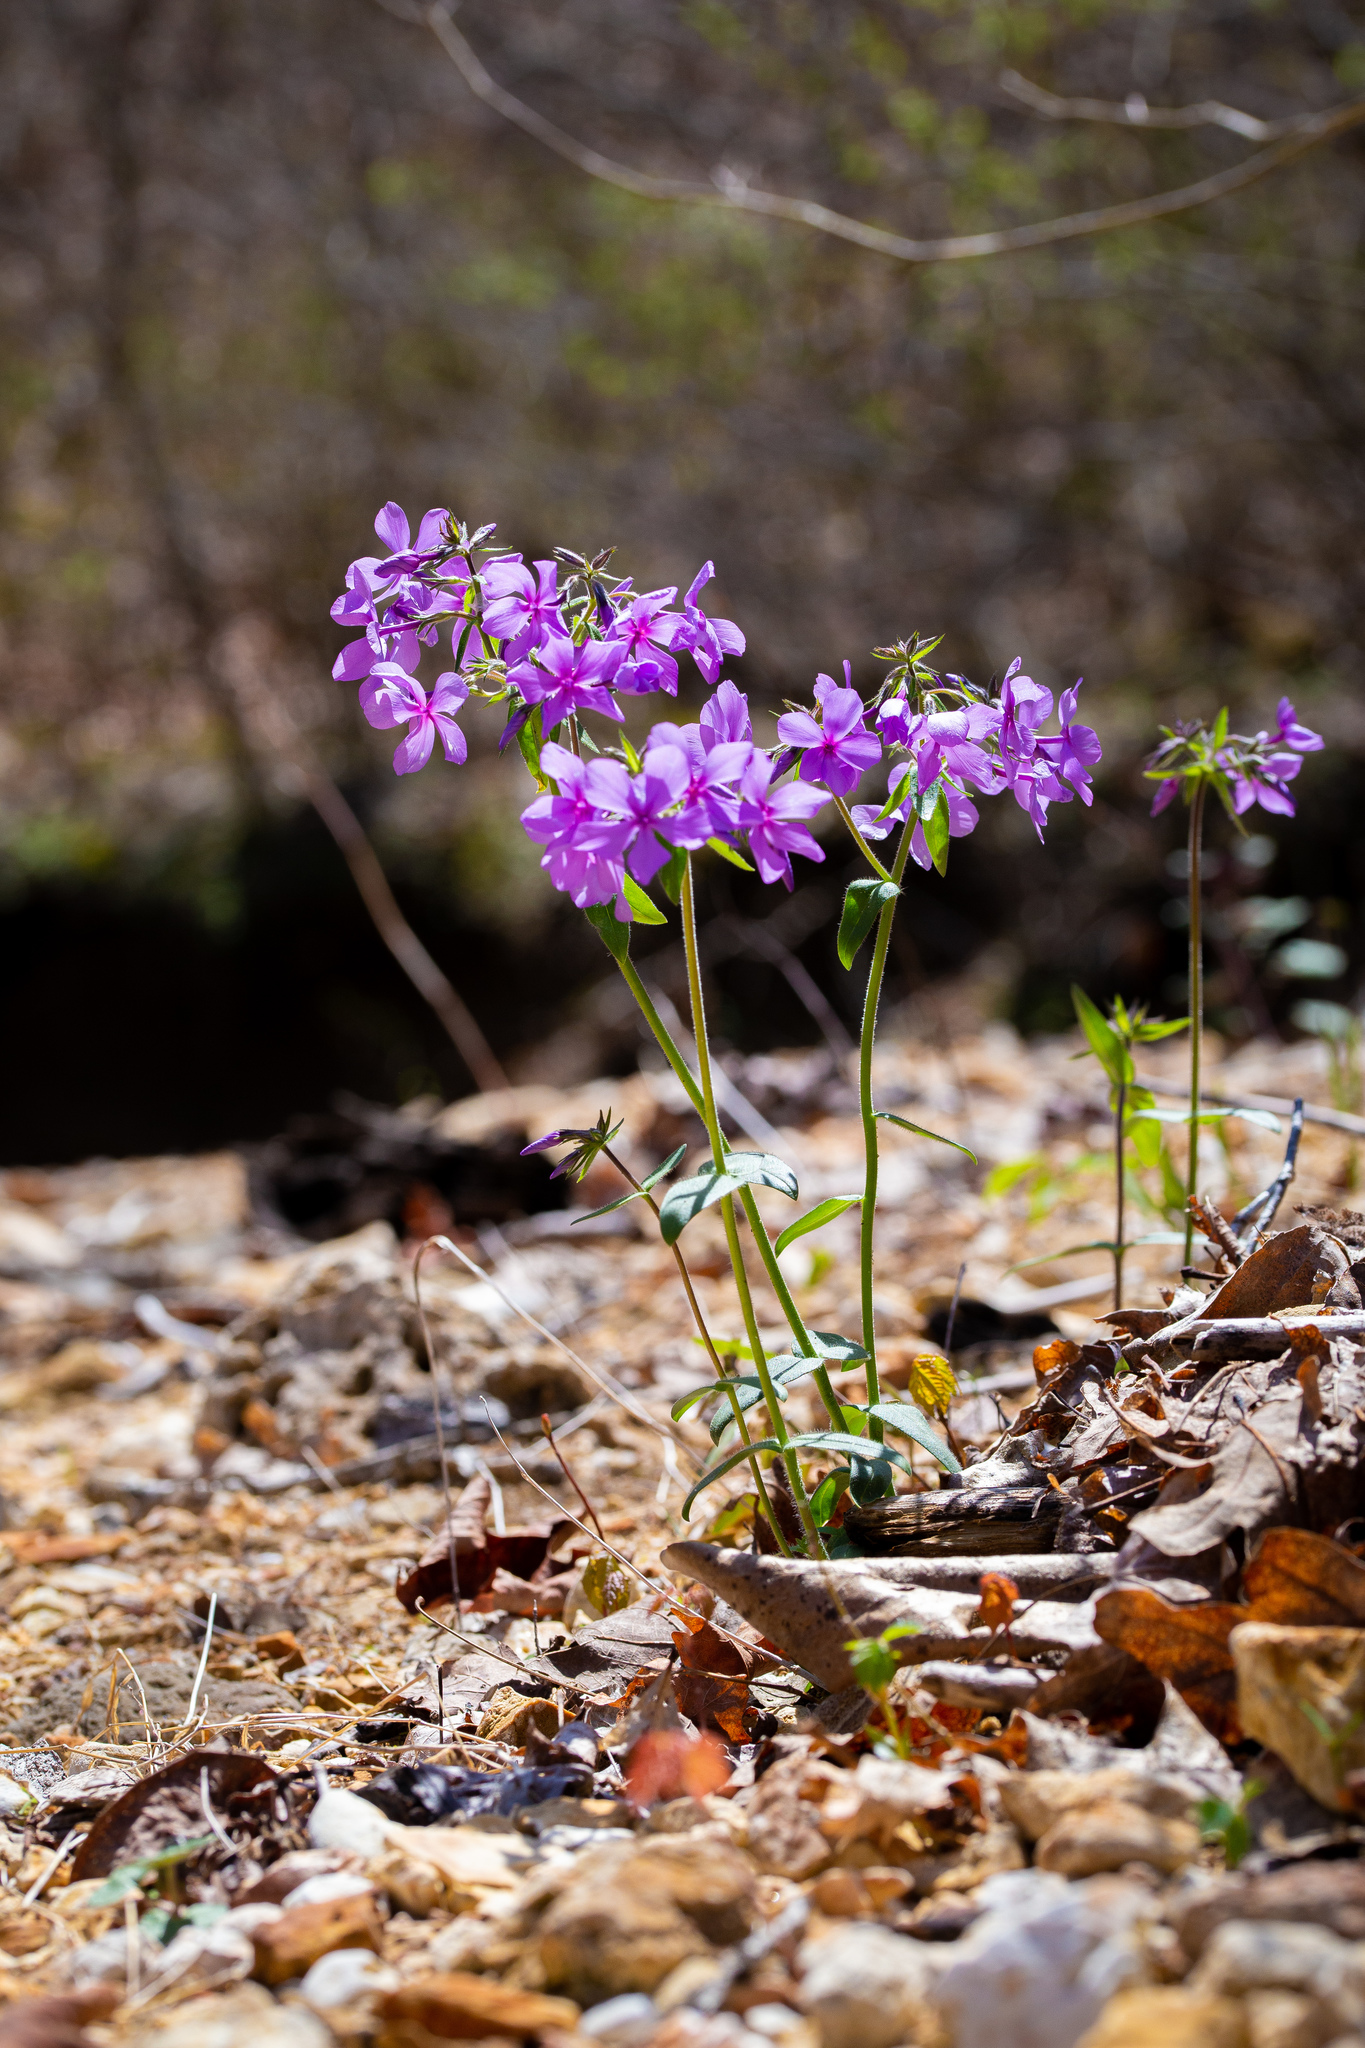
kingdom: Plantae
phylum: Tracheophyta
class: Magnoliopsida
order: Ericales
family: Polemoniaceae
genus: Phlox
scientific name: Phlox divaricata
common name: Blue phlox
